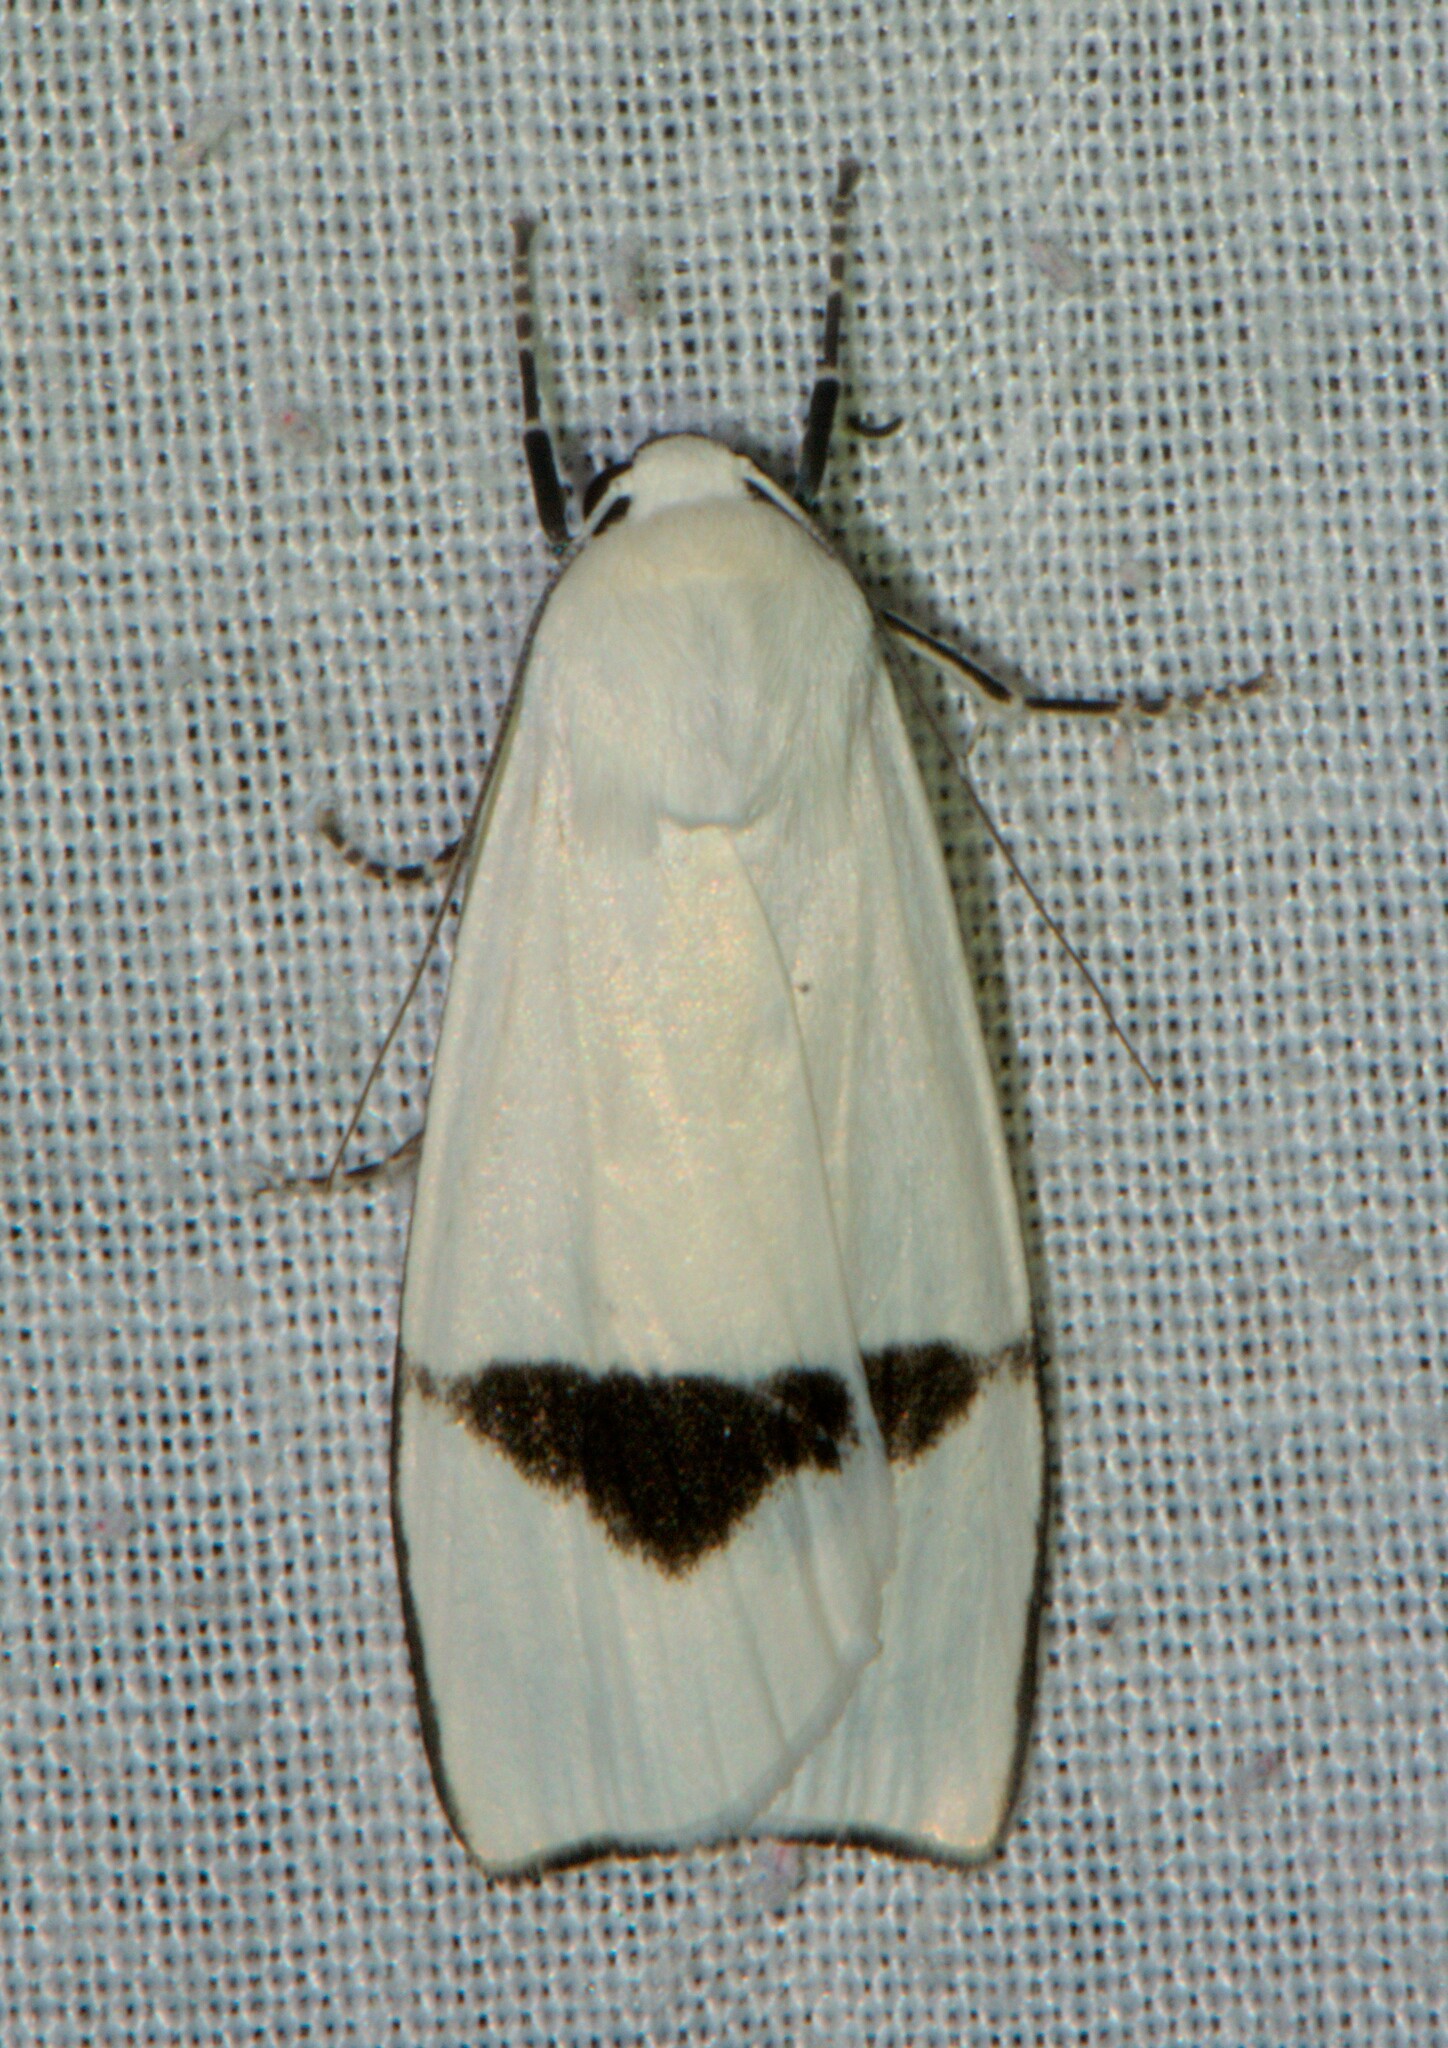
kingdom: Animalia
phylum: Arthropoda
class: Insecta
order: Lepidoptera
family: Erebidae
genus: Vamuna
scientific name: Vamuna remelana
